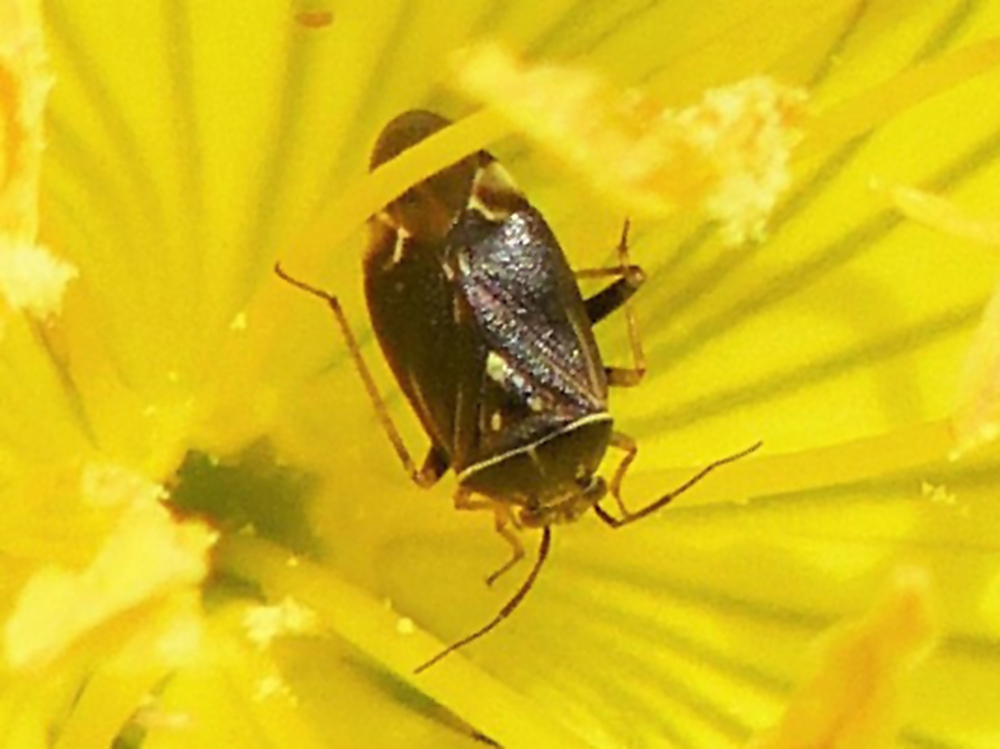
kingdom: Animalia
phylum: Arthropoda
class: Insecta
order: Hemiptera
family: Miridae
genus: Lygus
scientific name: Lygus lineolaris
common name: North american tarnished plant bug
